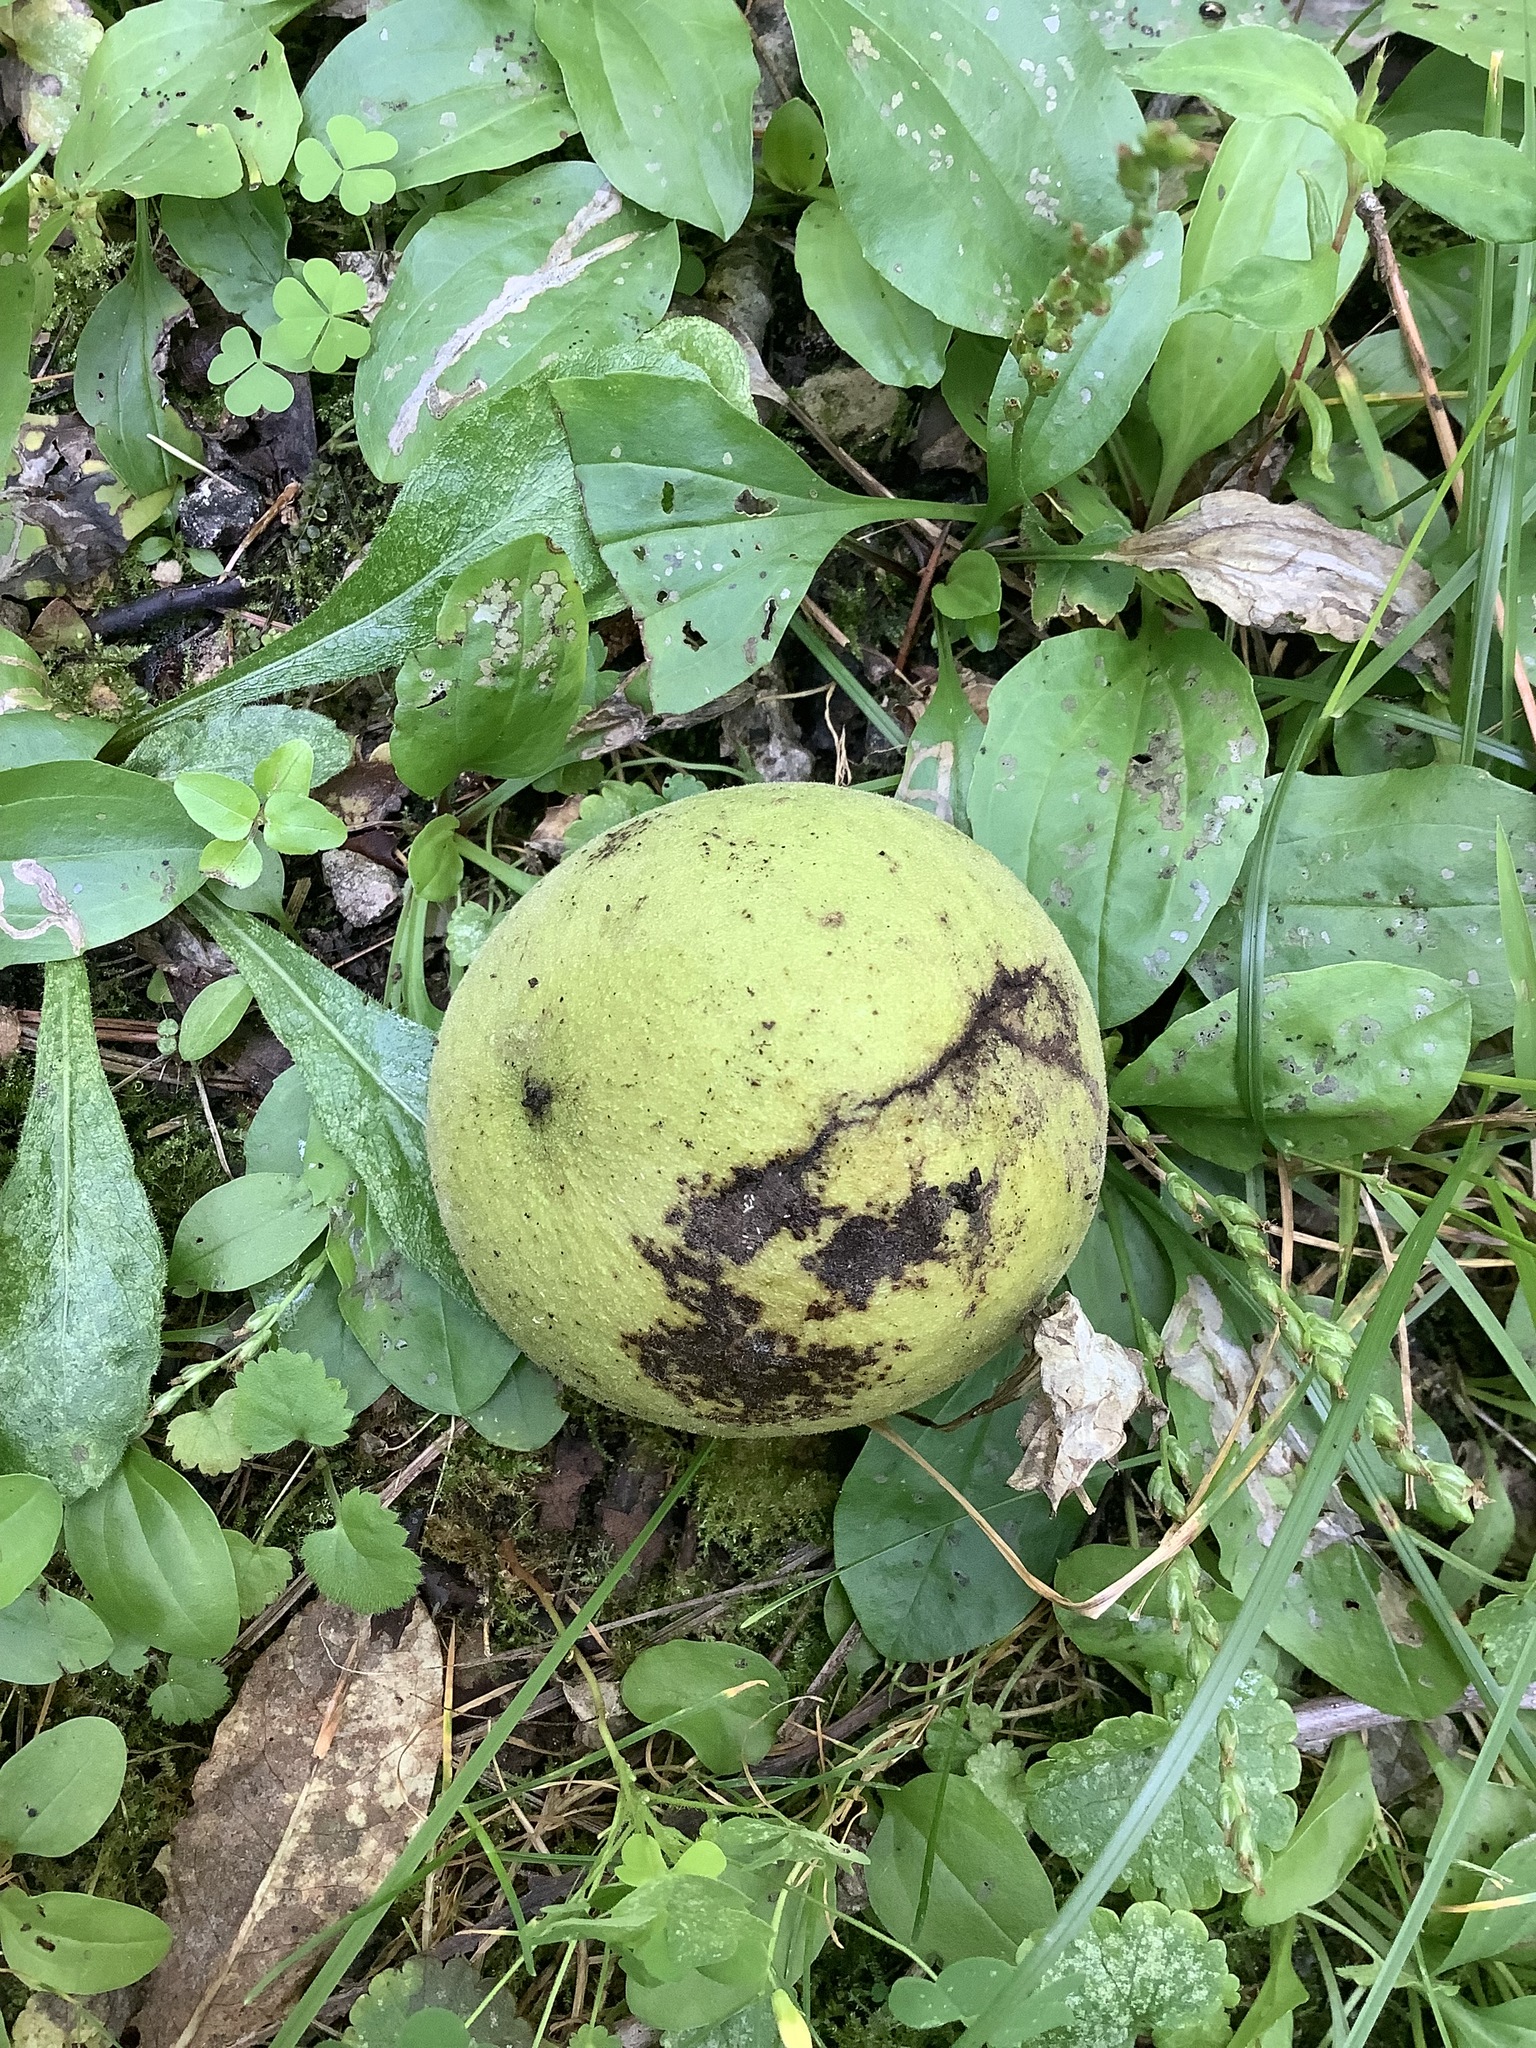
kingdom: Plantae
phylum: Tracheophyta
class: Magnoliopsida
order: Fagales
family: Juglandaceae
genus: Juglans
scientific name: Juglans nigra
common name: Black walnut
